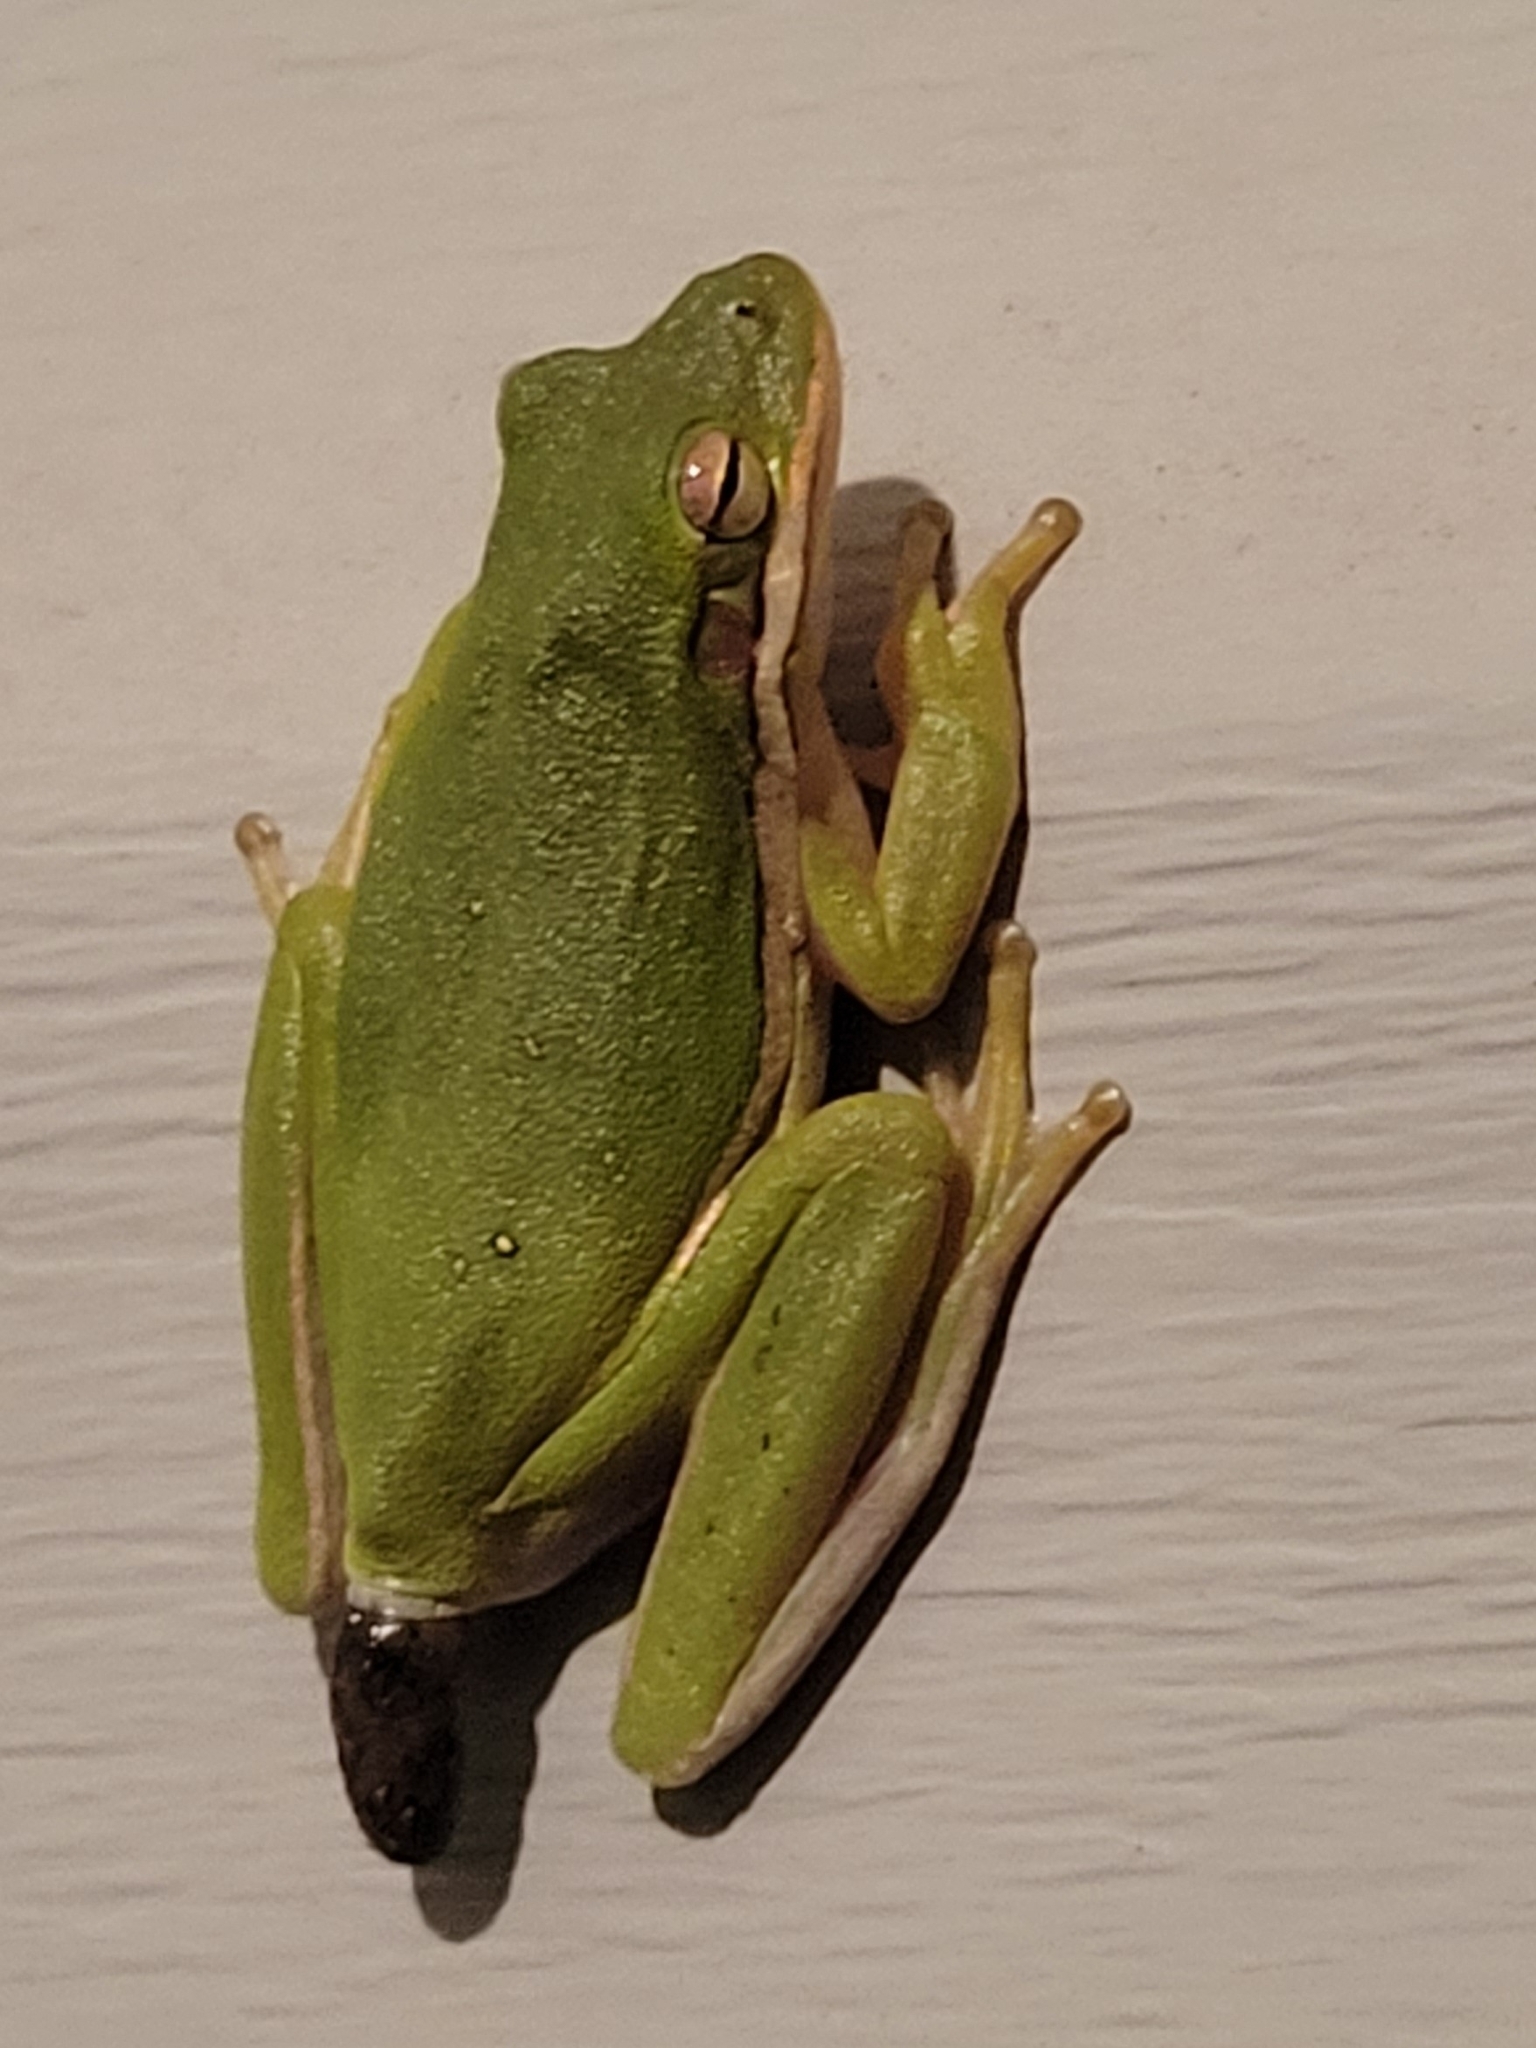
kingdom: Animalia
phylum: Chordata
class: Amphibia
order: Anura
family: Hylidae
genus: Dryophytes
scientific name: Dryophytes cinereus
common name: Green treefrog
